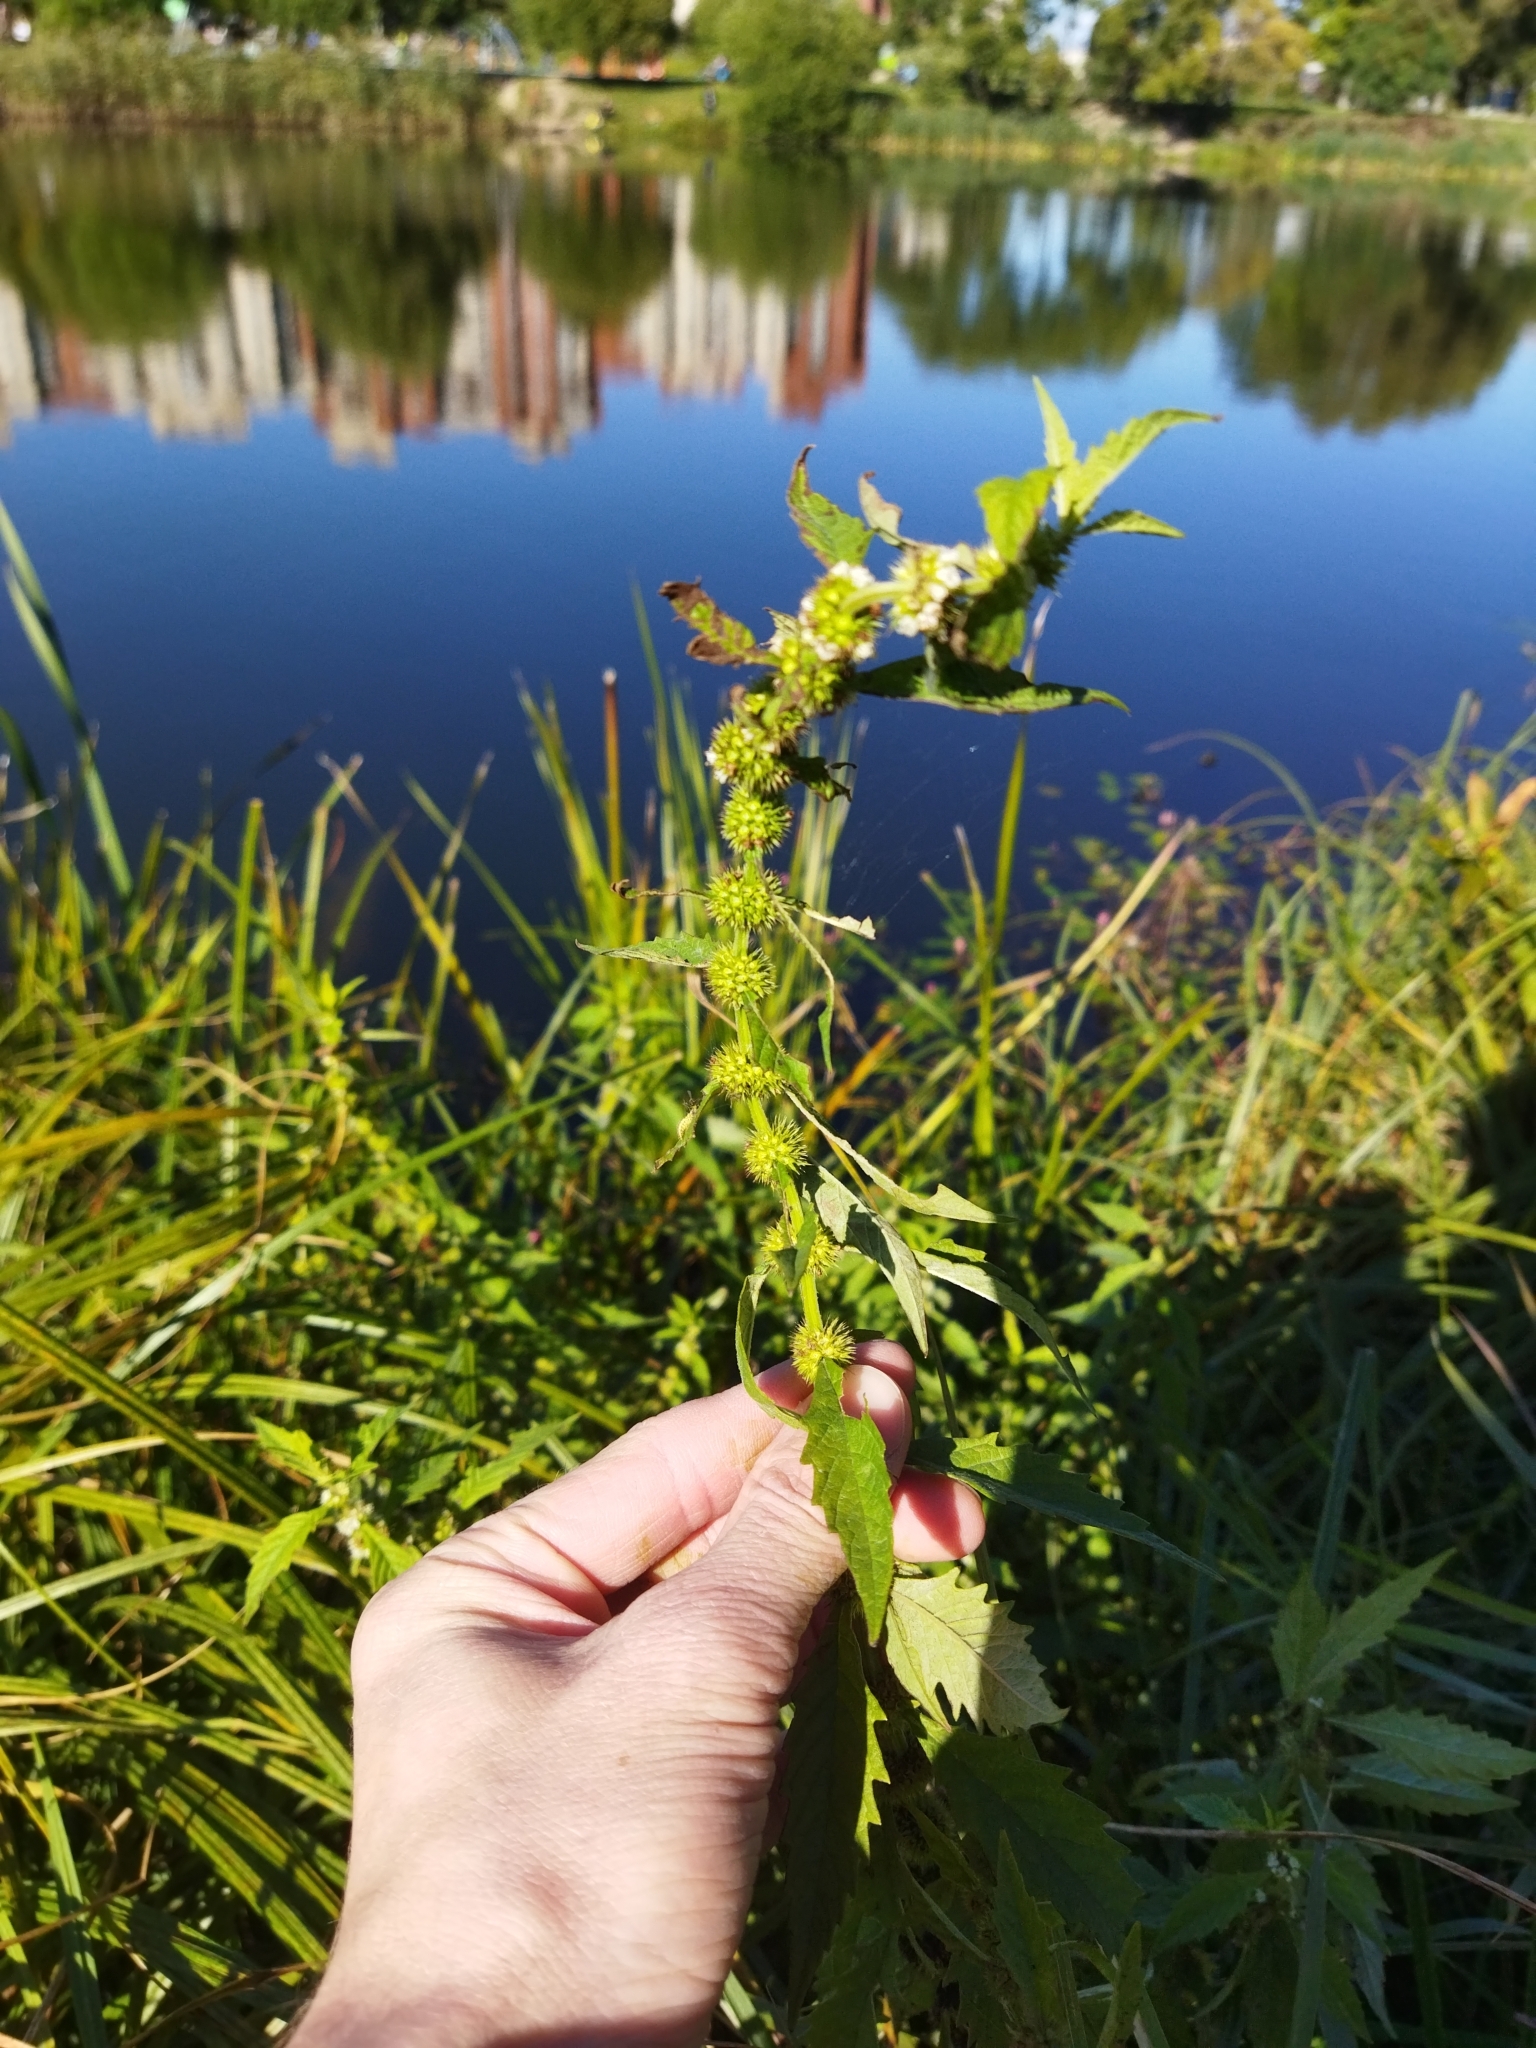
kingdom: Plantae
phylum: Tracheophyta
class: Magnoliopsida
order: Lamiales
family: Lamiaceae
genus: Lycopus
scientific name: Lycopus europaeus
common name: European bugleweed
